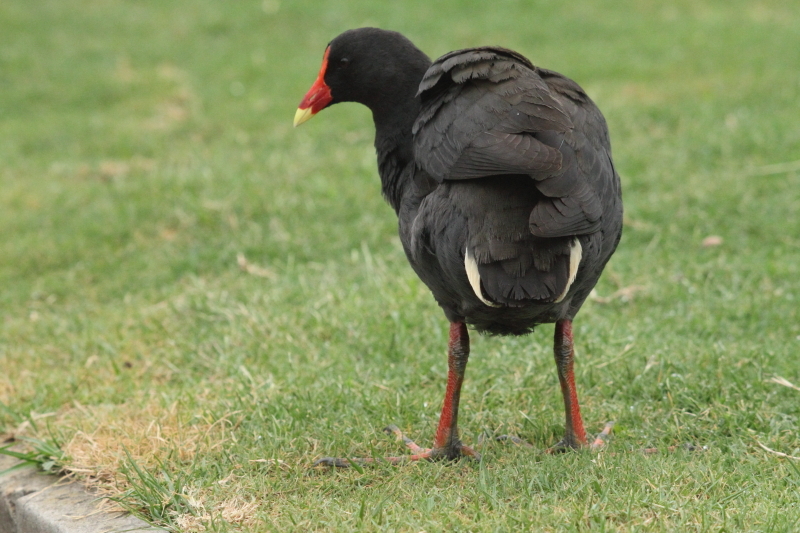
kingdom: Animalia
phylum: Chordata
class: Aves
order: Gruiformes
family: Rallidae
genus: Gallinula
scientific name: Gallinula tenebrosa
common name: Dusky moorhen
